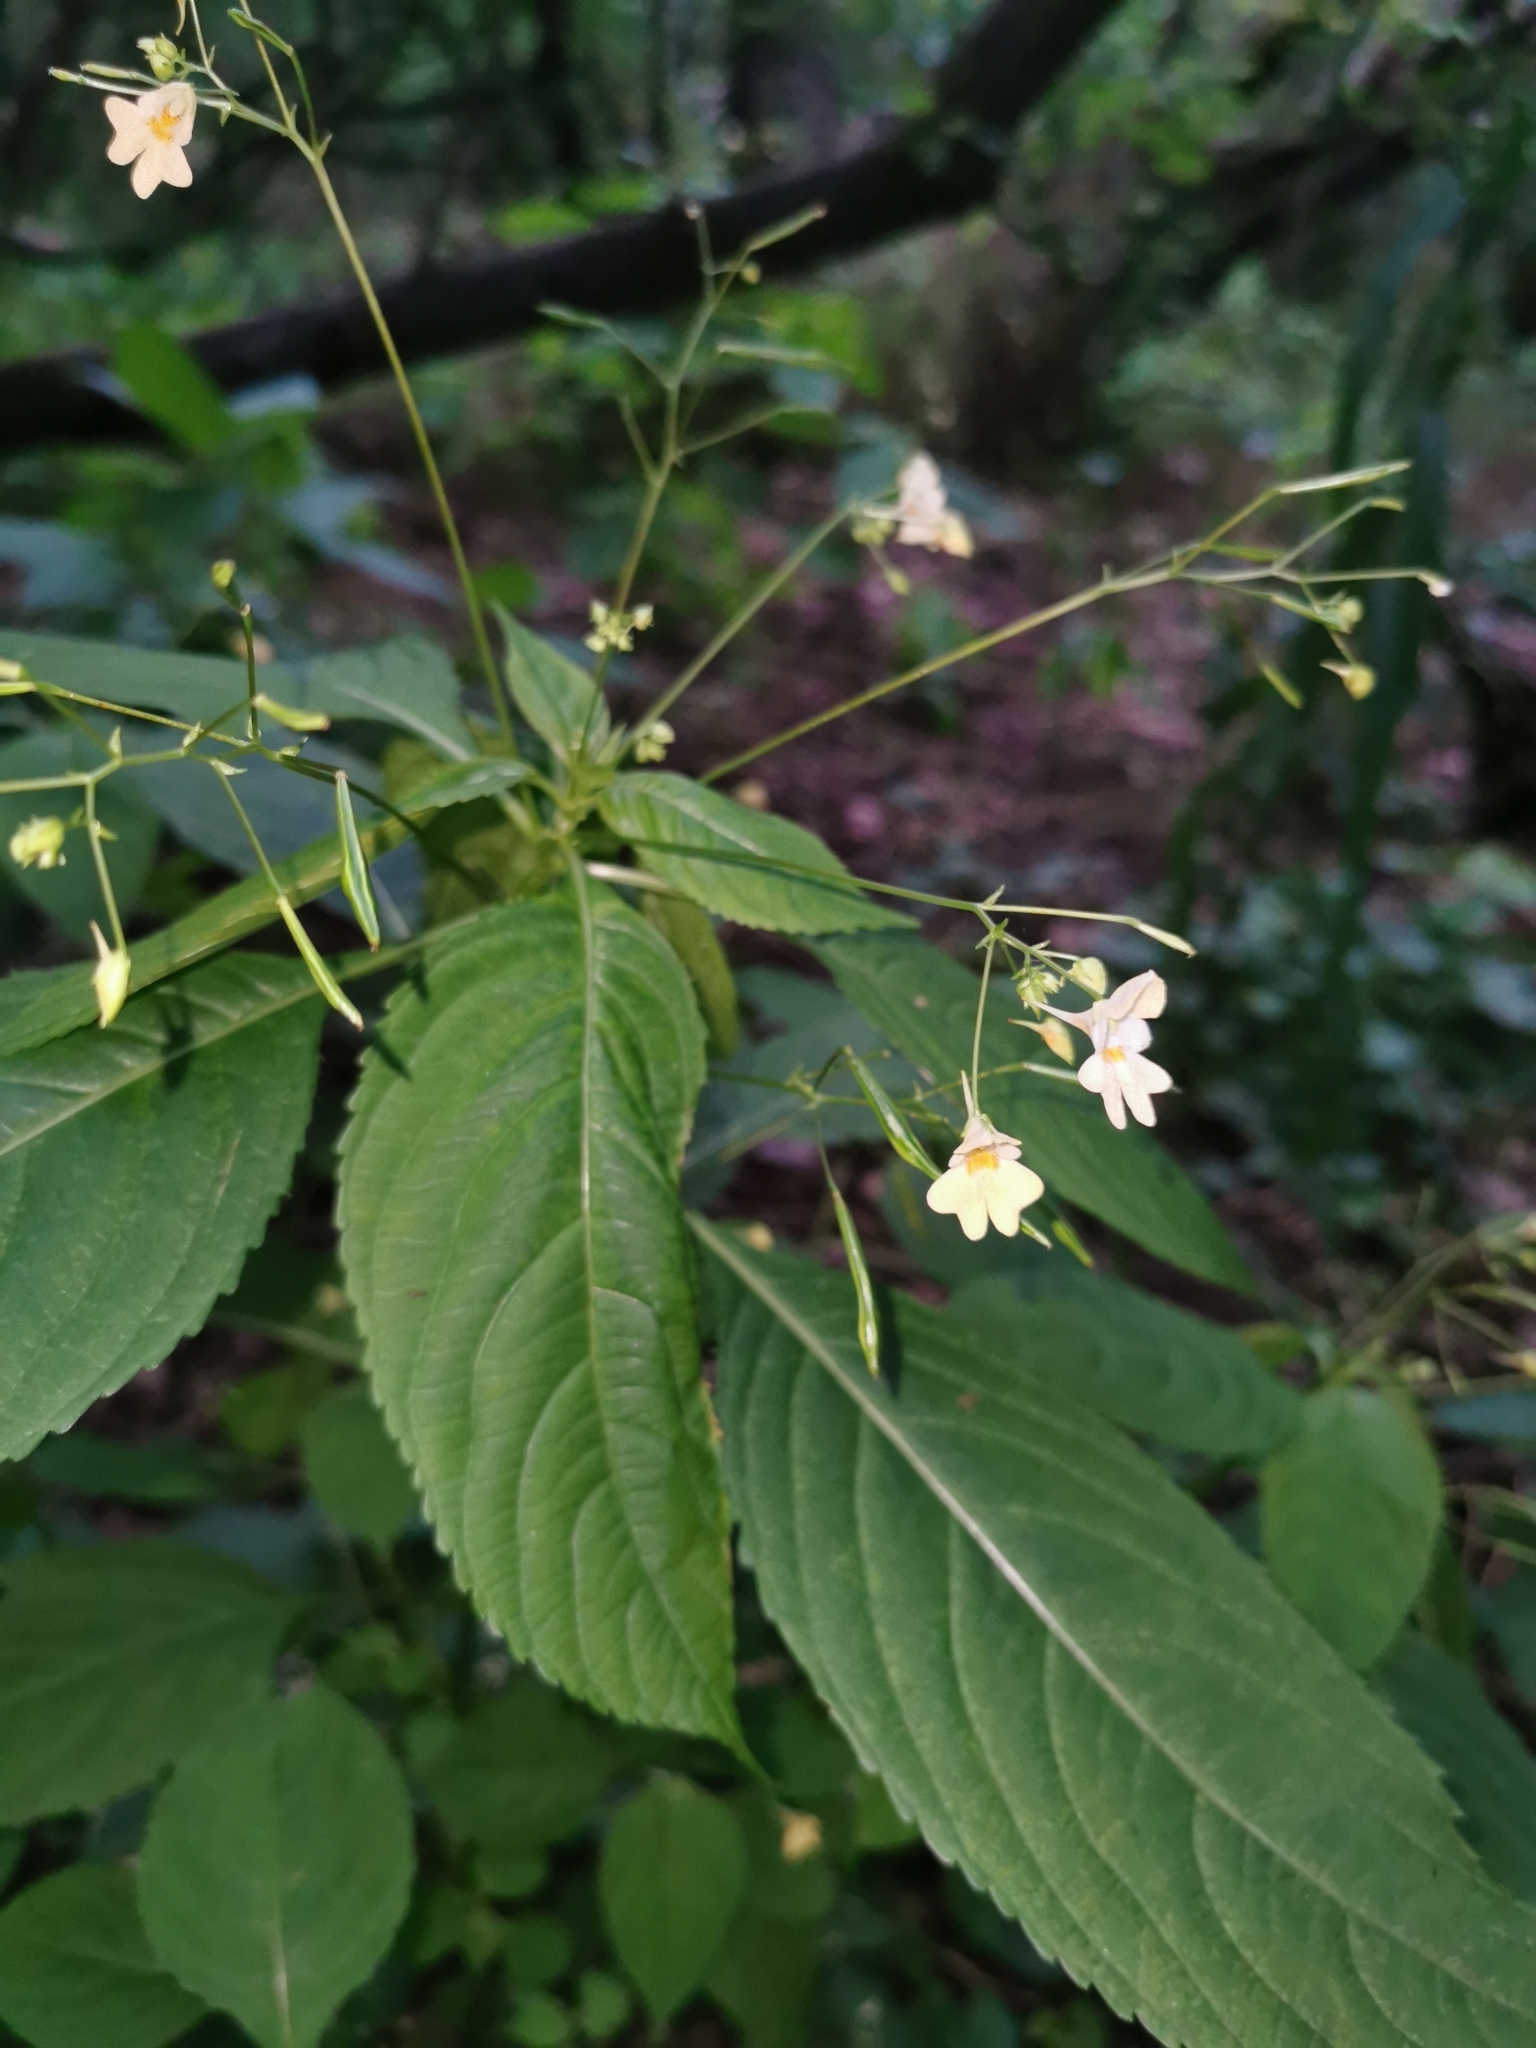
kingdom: Plantae
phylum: Tracheophyta
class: Magnoliopsida
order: Ericales
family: Balsaminaceae
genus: Impatiens
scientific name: Impatiens parviflora
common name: Small balsam
